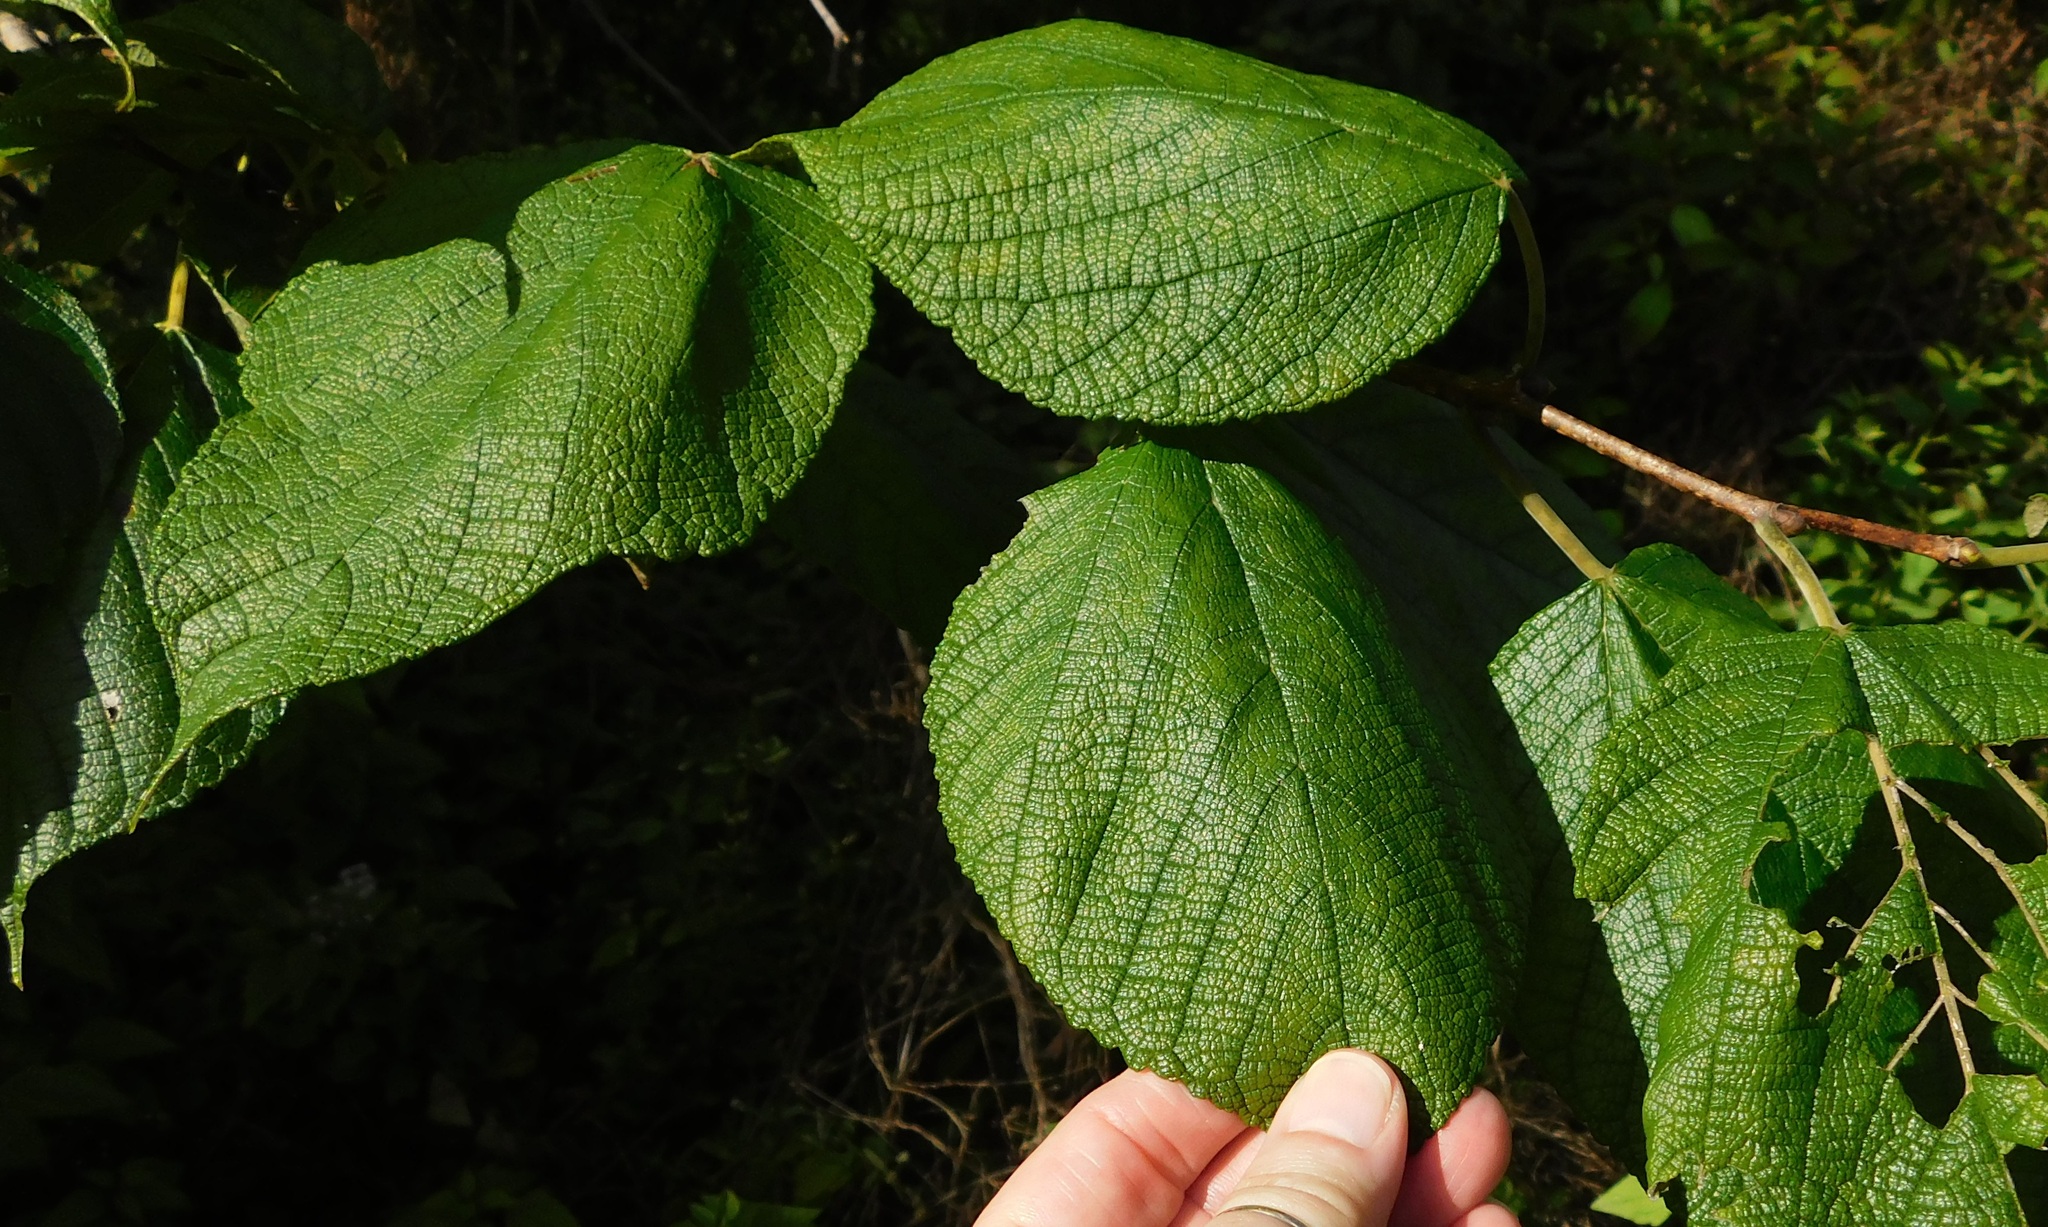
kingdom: Plantae
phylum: Tracheophyta
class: Magnoliopsida
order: Rosales
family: Moraceae
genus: Morus
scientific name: Morus rubra
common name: Red mulberry
